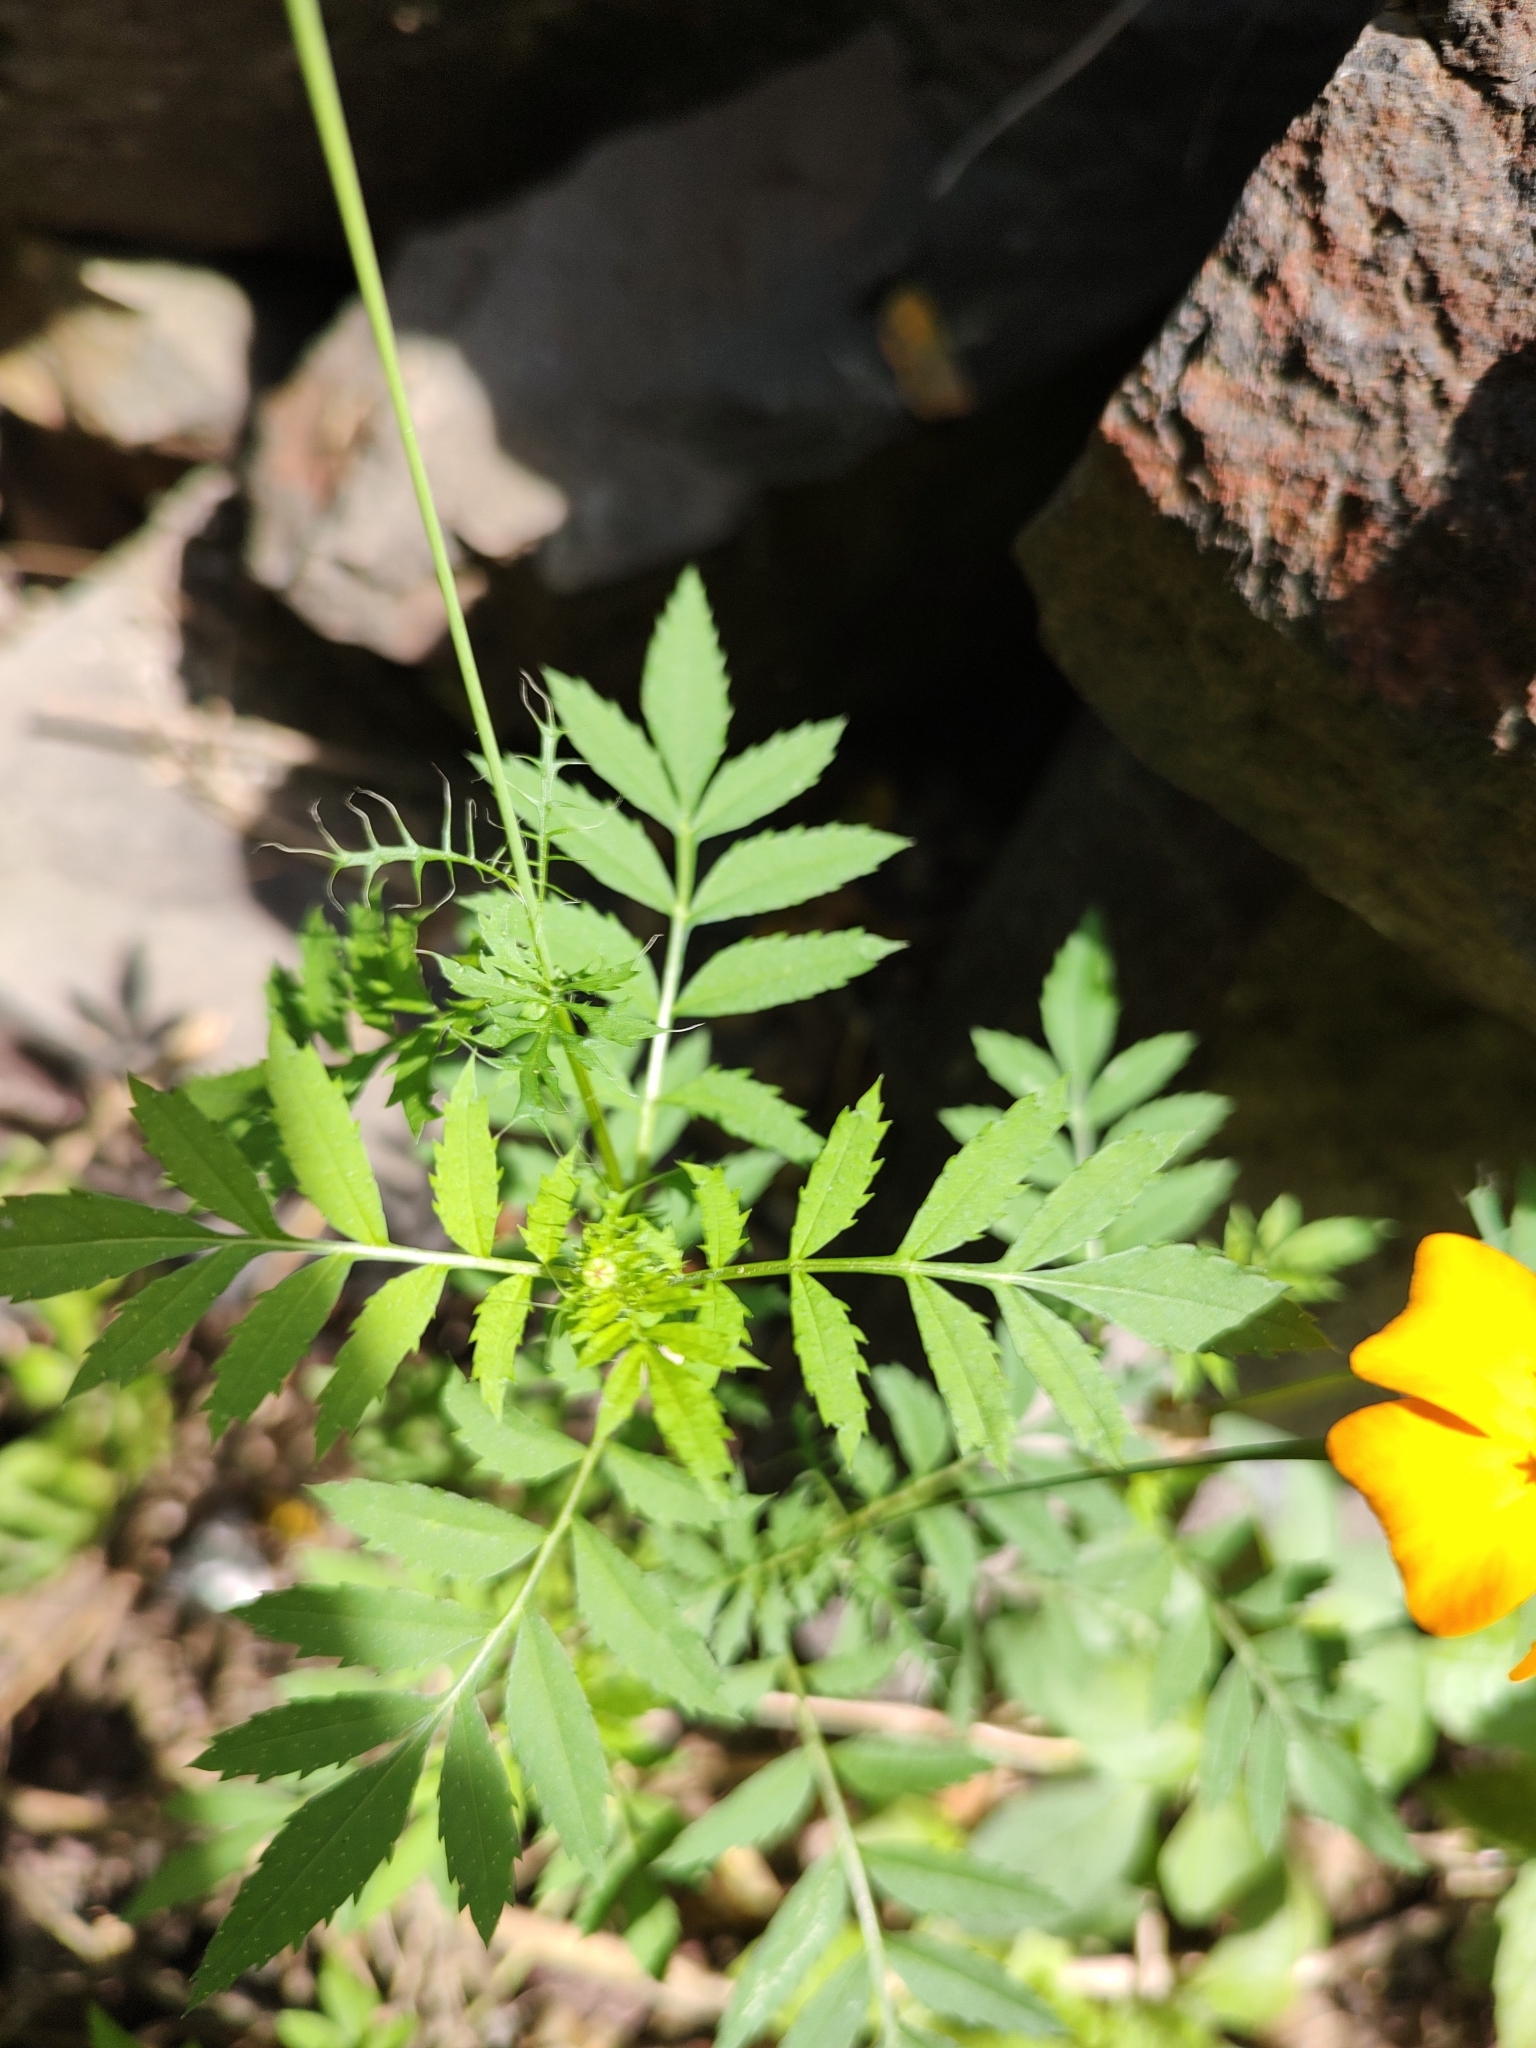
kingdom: Plantae
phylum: Tracheophyta
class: Magnoliopsida
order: Asterales
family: Asteraceae
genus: Tagetes
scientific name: Tagetes tenuifolia
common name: Signet marigold
